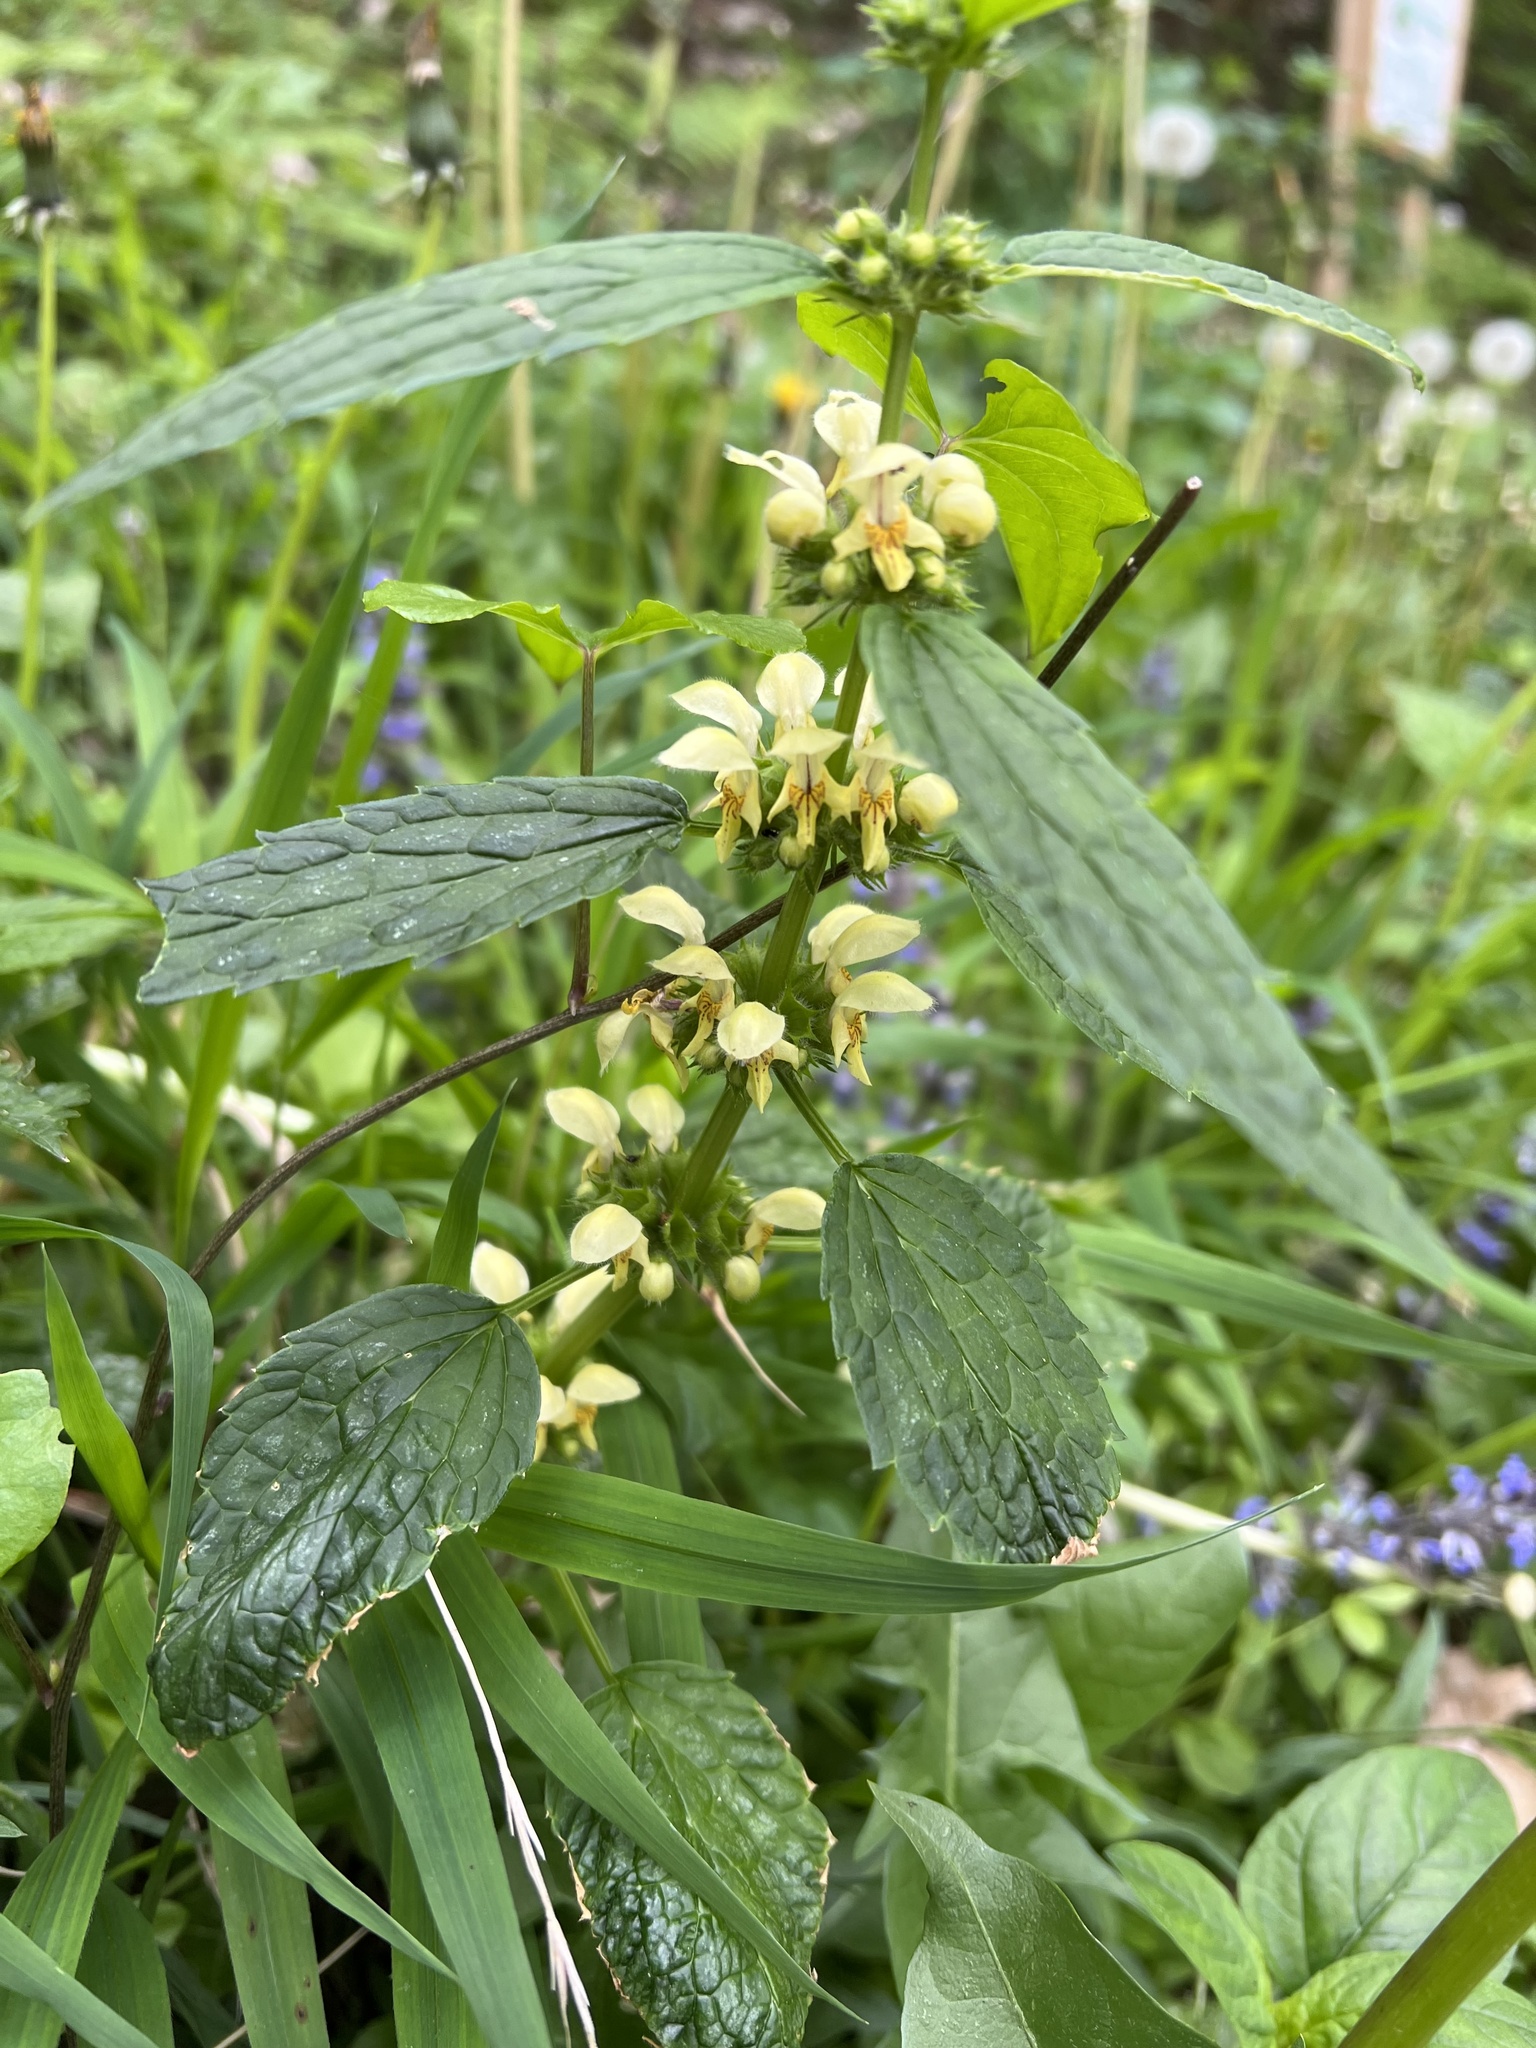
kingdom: Plantae
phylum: Tracheophyta
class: Magnoliopsida
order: Lamiales
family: Lamiaceae
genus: Lamium
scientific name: Lamium galeobdolon
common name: Yellow archangel
